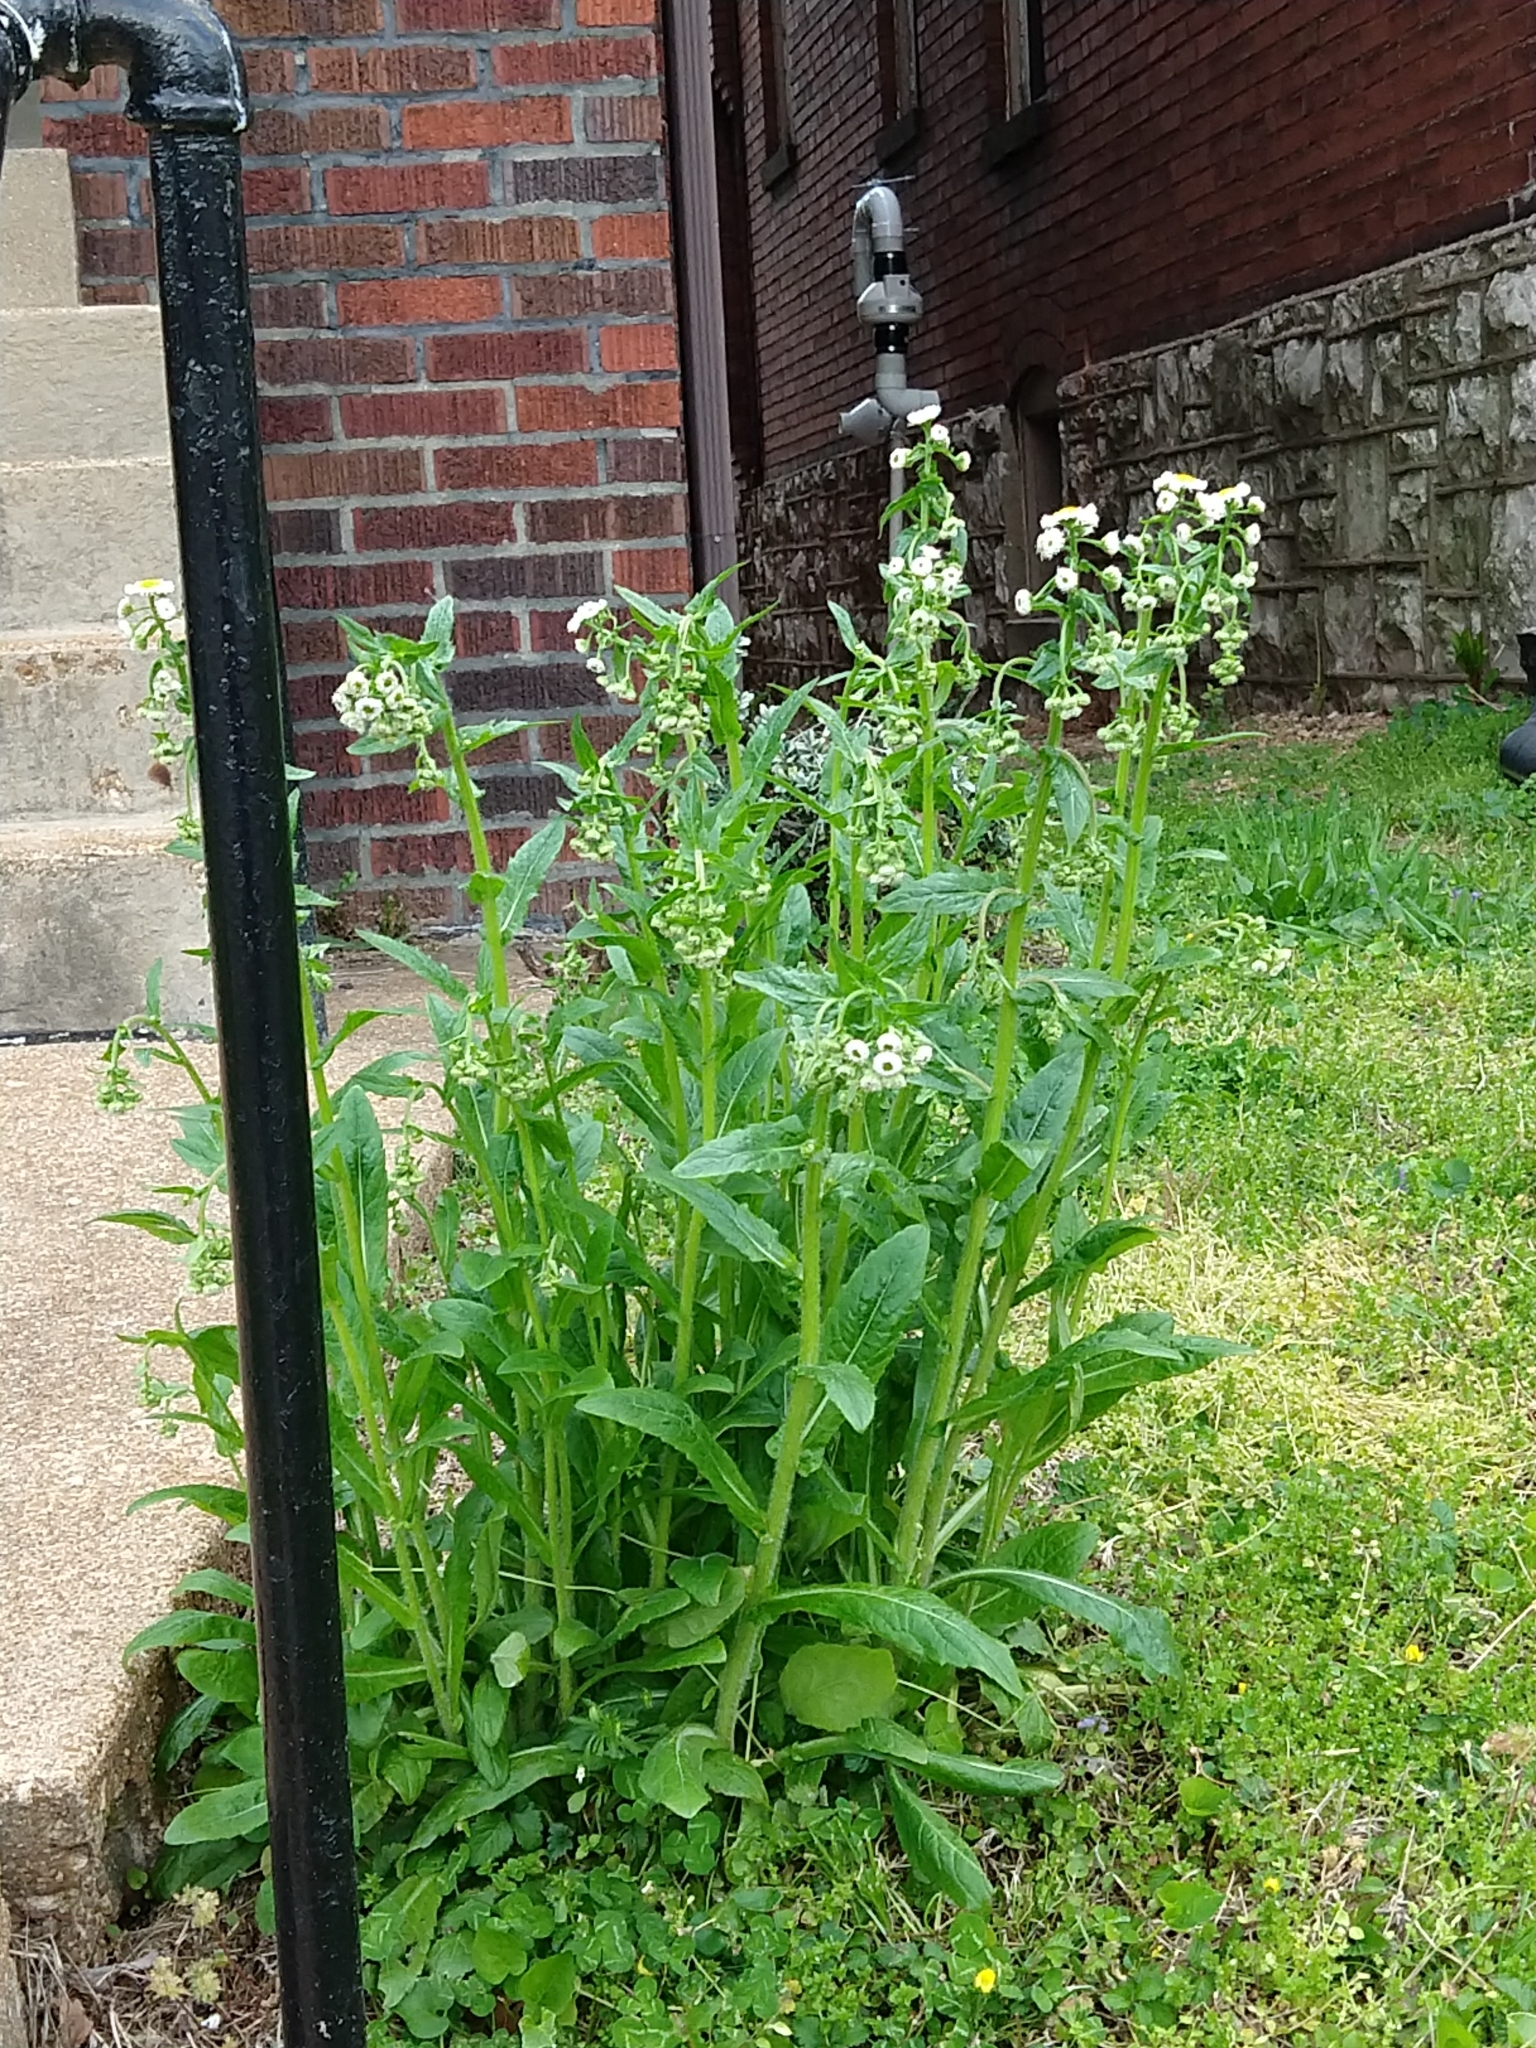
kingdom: Plantae
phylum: Tracheophyta
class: Magnoliopsida
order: Asterales
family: Asteraceae
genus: Erigeron
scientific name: Erigeron philadelphicus
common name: Robin's-plantain
